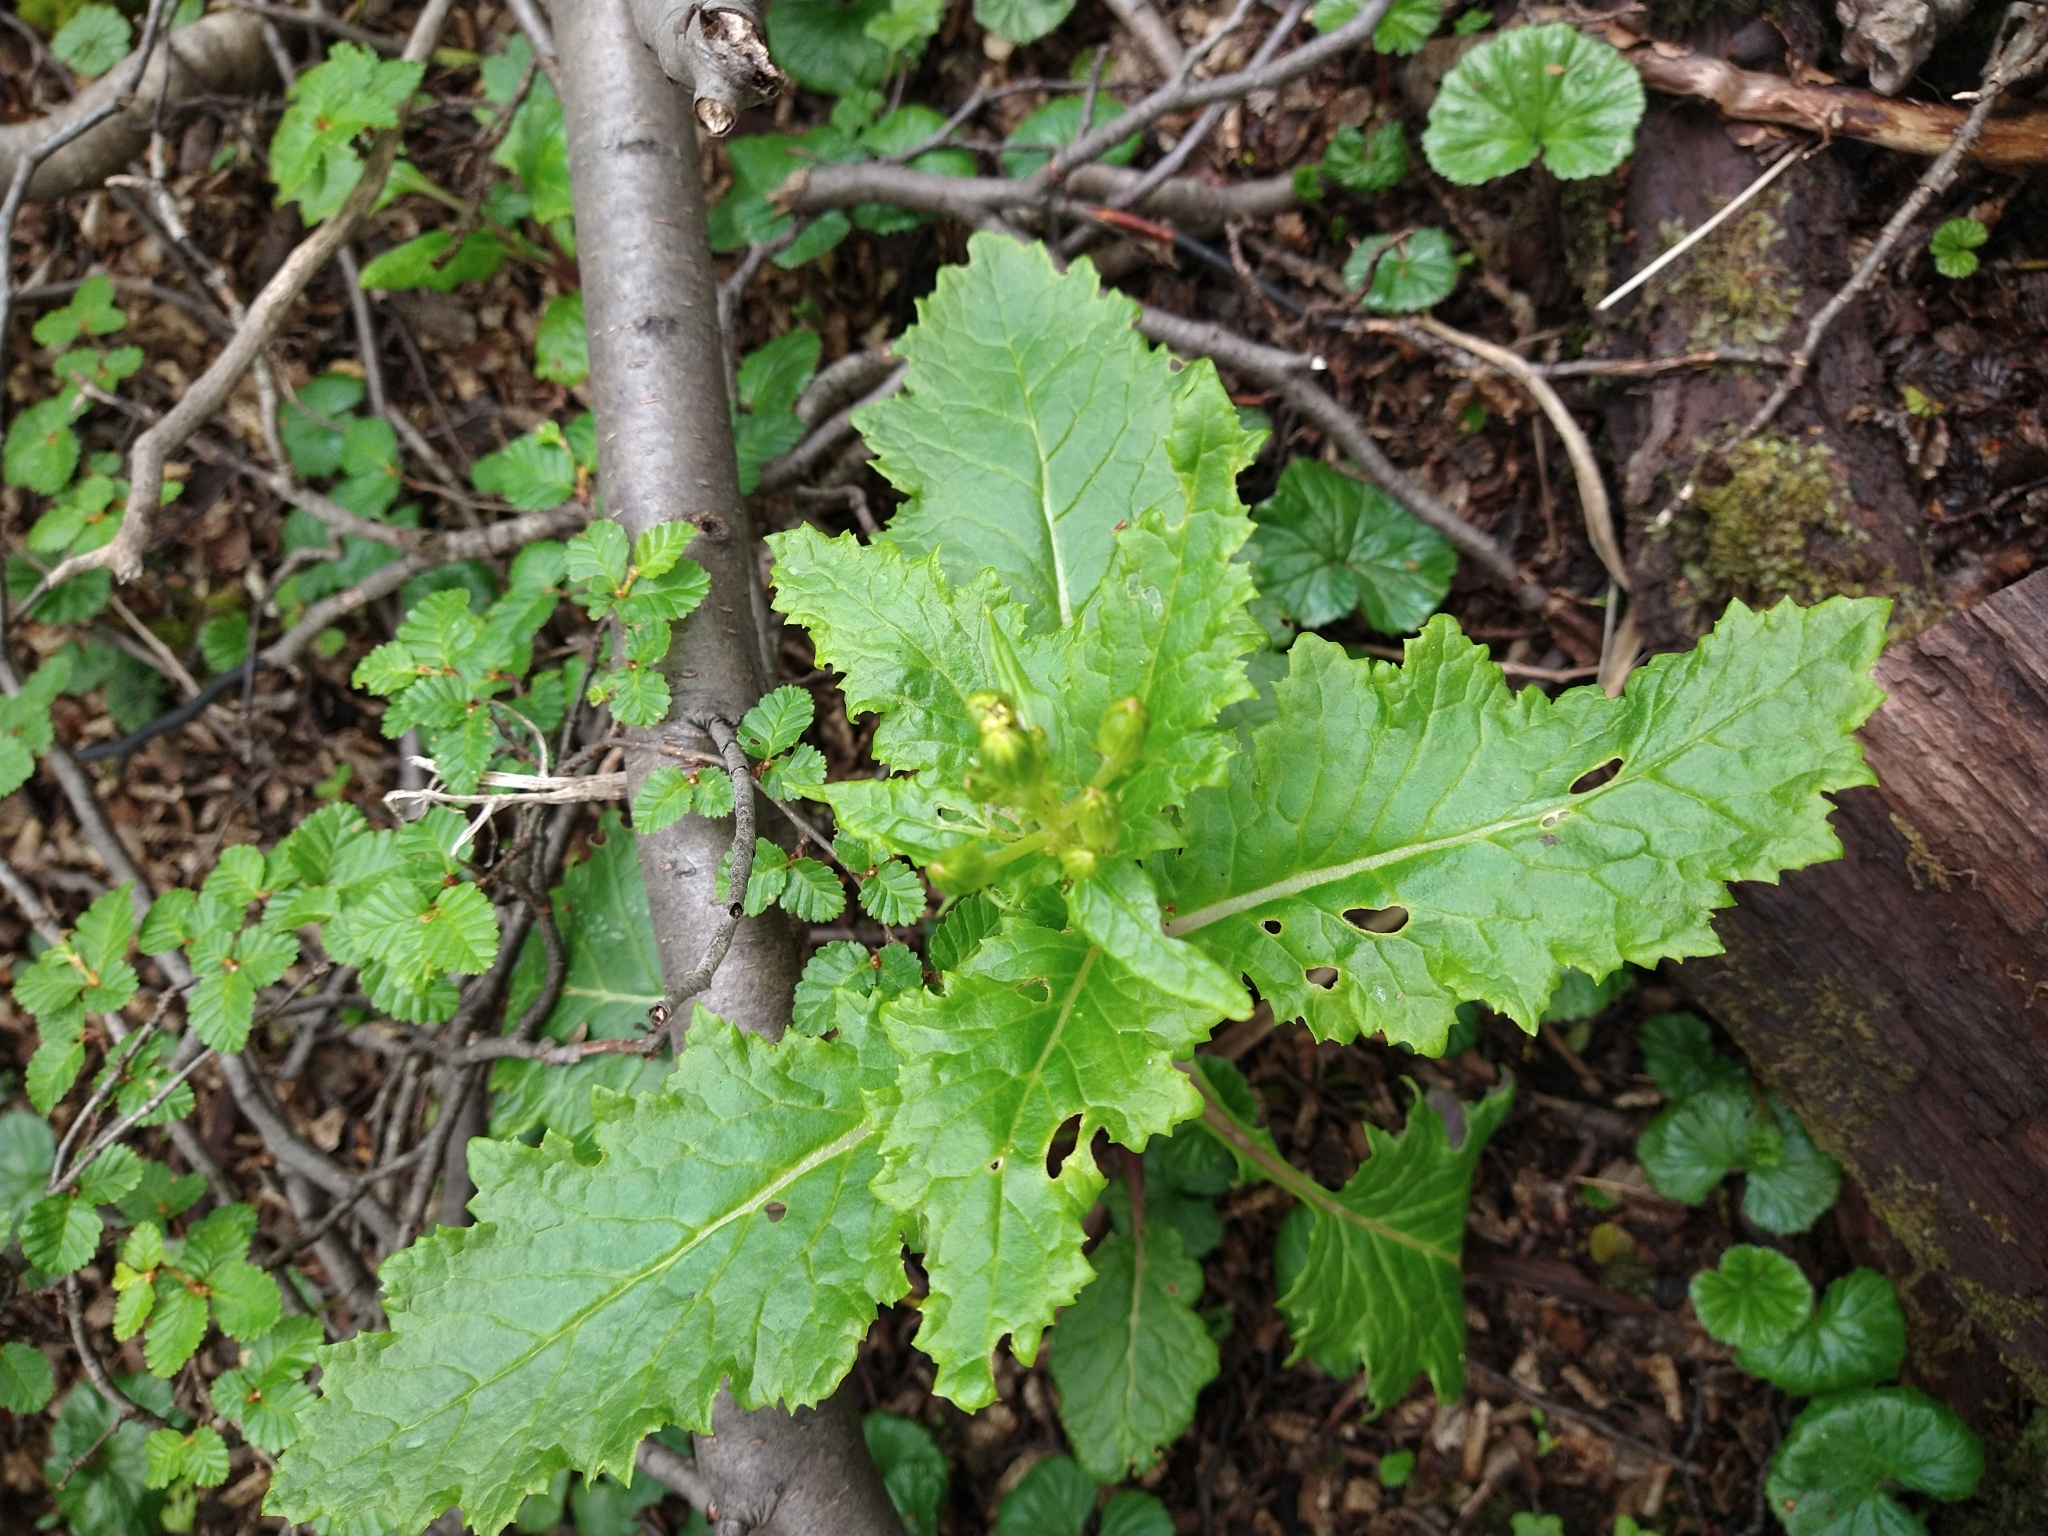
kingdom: Plantae
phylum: Tracheophyta
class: Magnoliopsida
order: Asterales
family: Asteraceae
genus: Iocenes
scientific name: Iocenes virens
